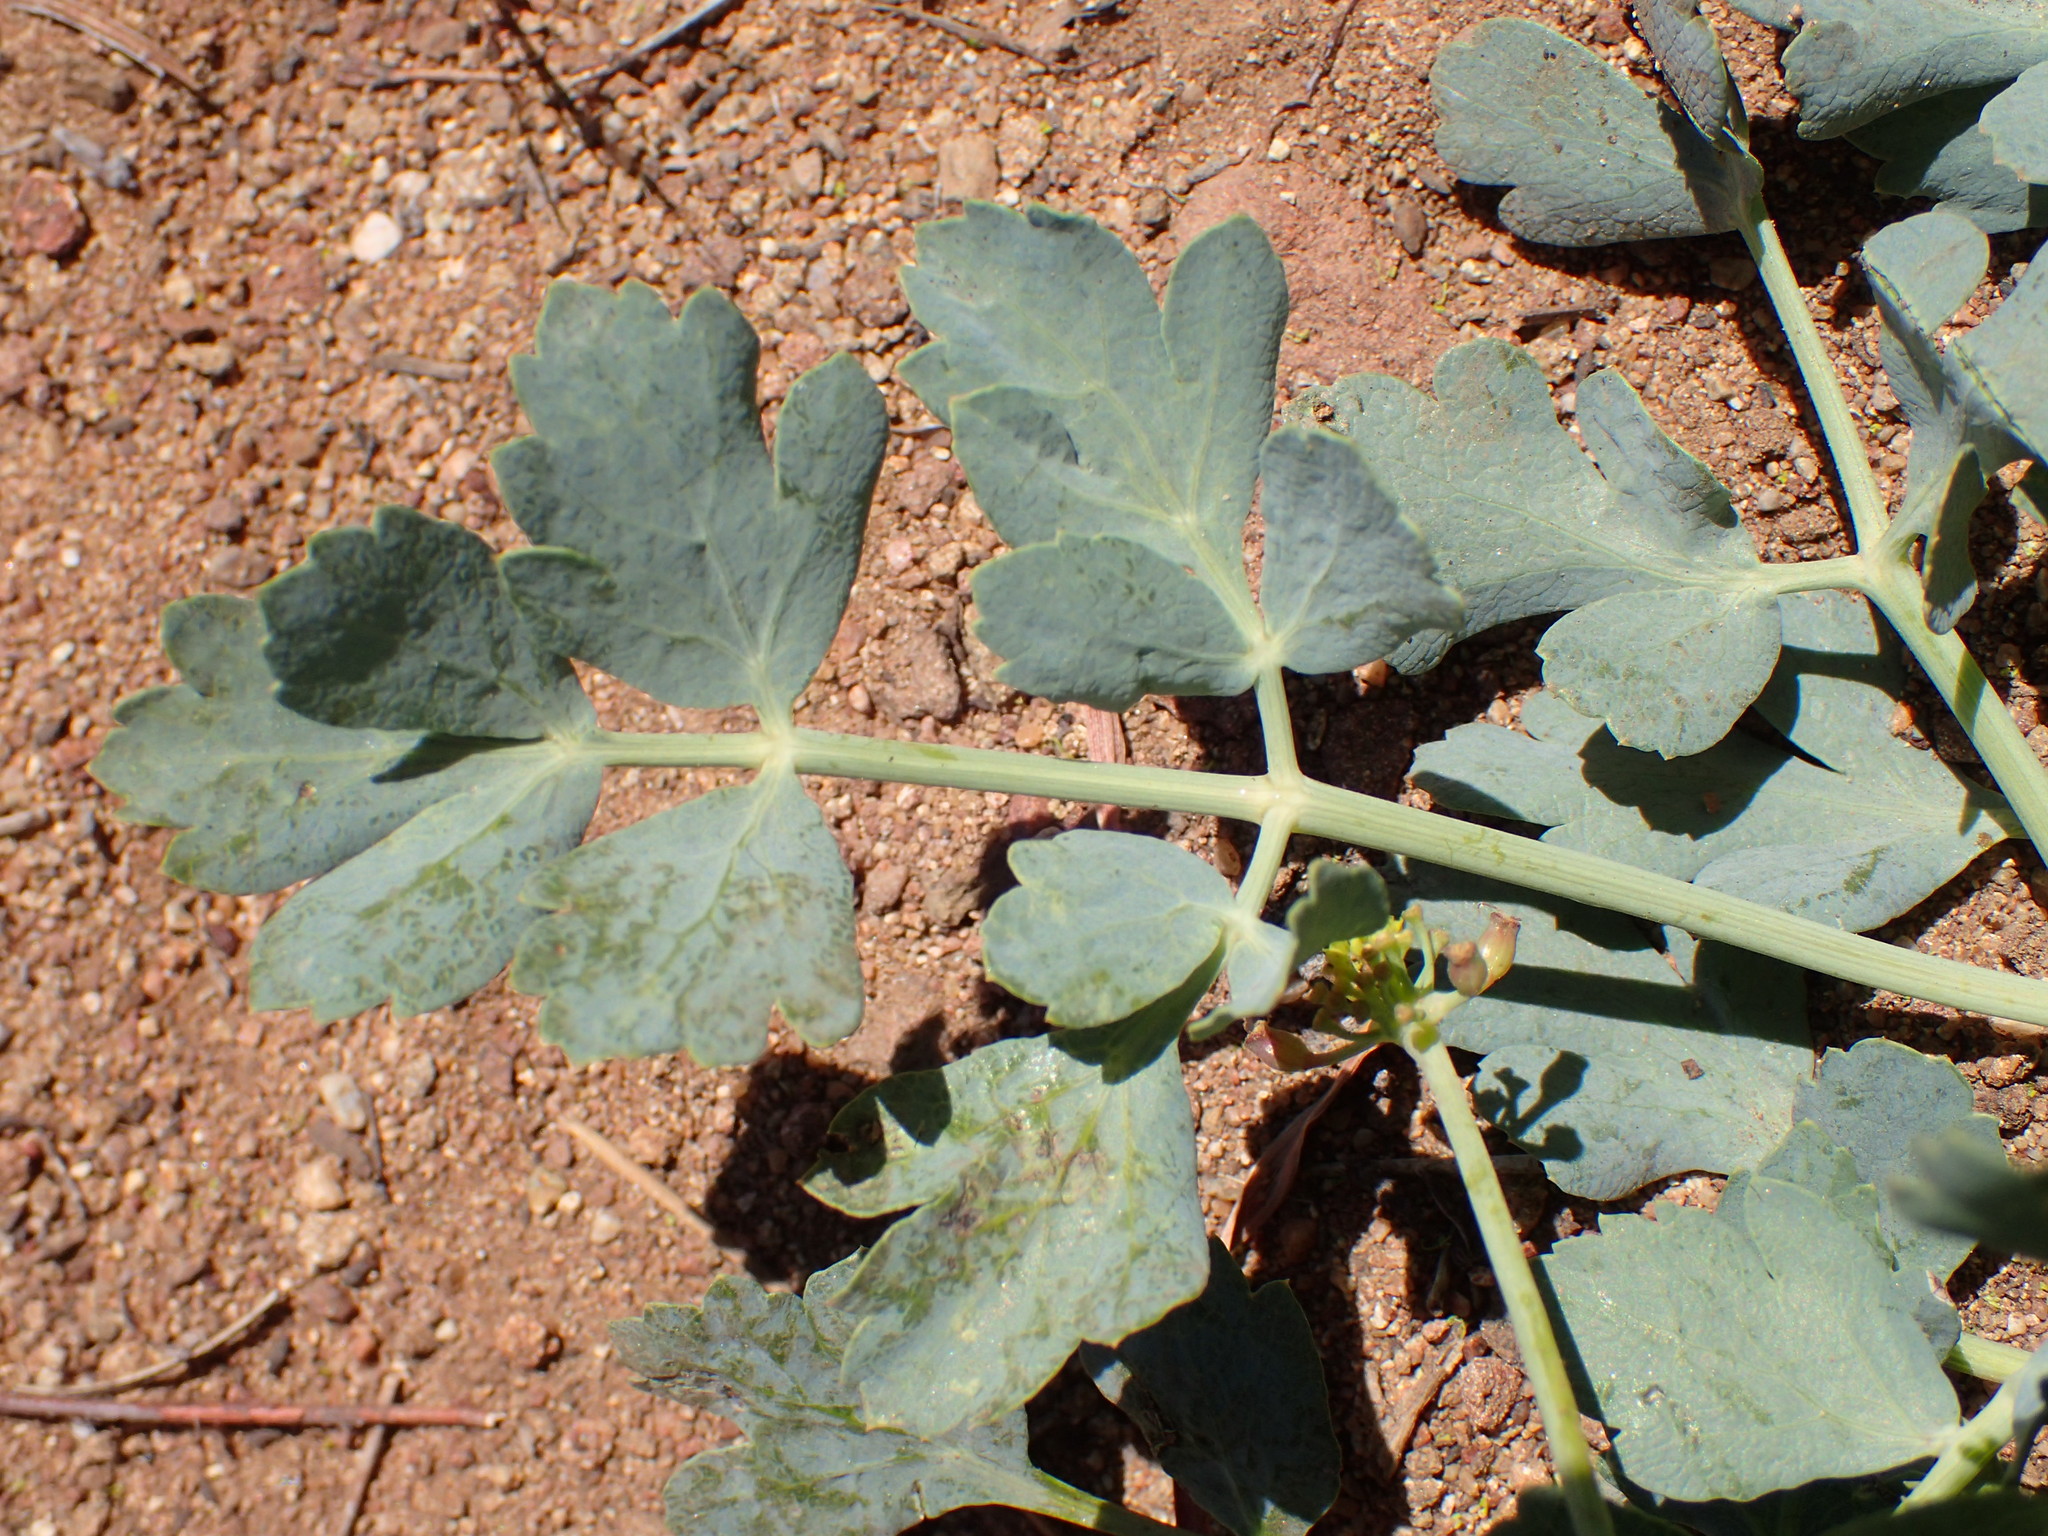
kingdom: Plantae
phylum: Tracheophyta
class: Magnoliopsida
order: Apiales
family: Apiaceae
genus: Lomatium
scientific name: Lomatium californicum
